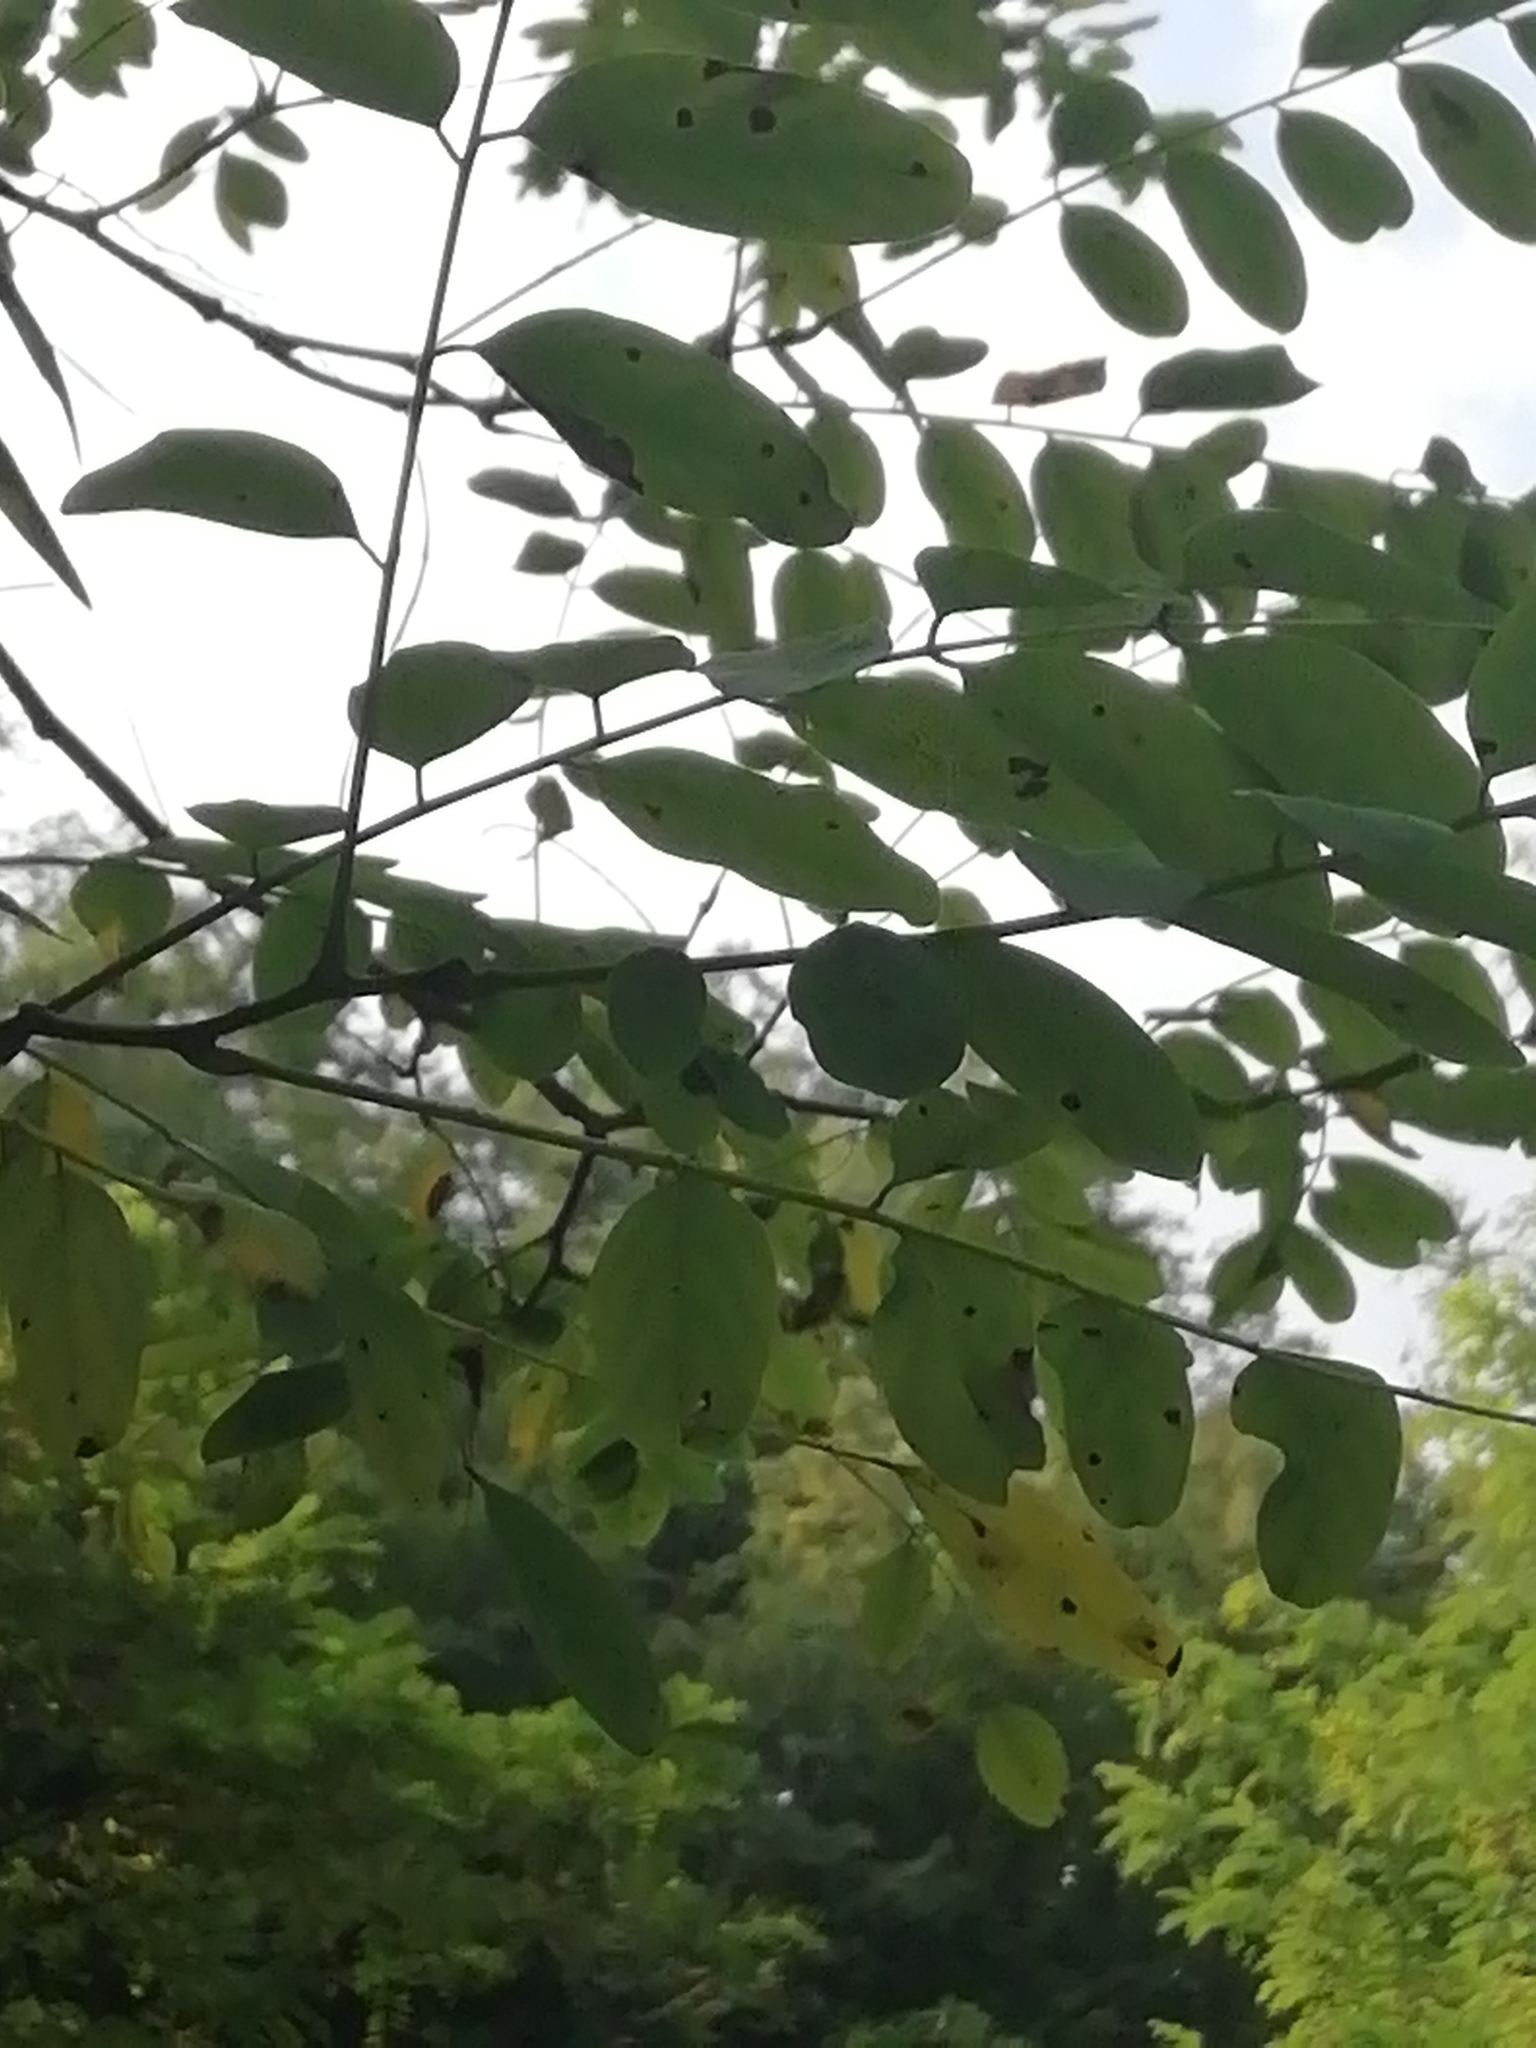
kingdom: Plantae
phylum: Tracheophyta
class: Magnoliopsida
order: Fabales
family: Fabaceae
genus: Robinia
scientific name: Robinia pseudoacacia
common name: Black locust
